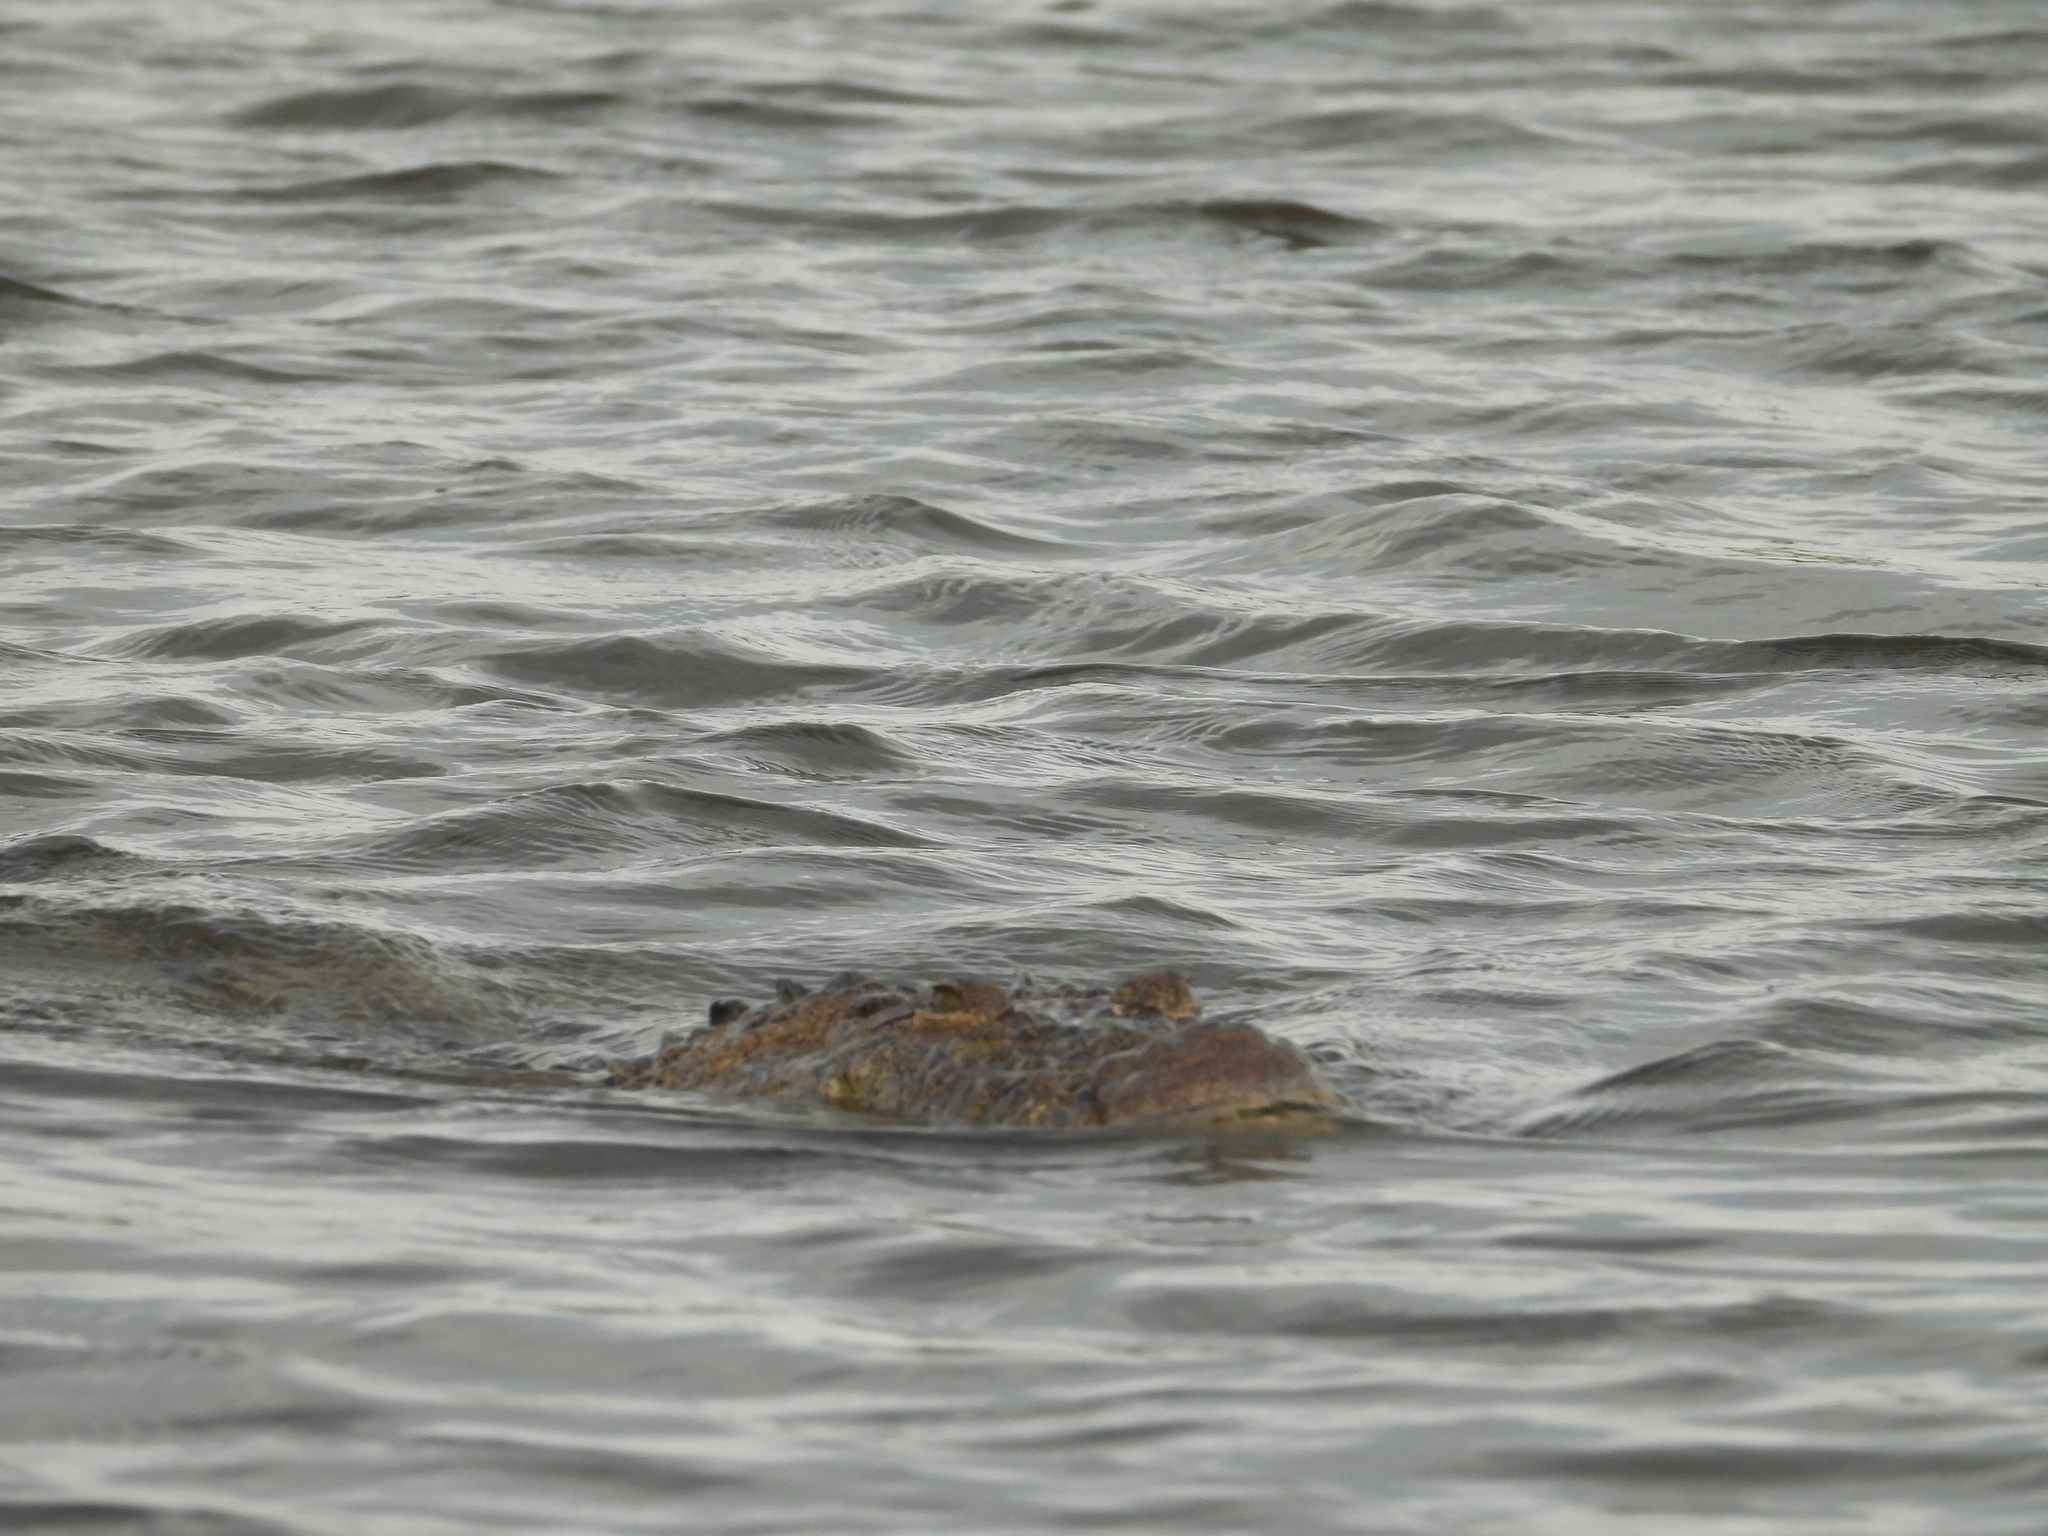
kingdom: Animalia
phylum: Chordata
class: Crocodylia
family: Crocodylidae
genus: Crocodylus
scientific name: Crocodylus moreletii
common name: Morelet's crocodile
